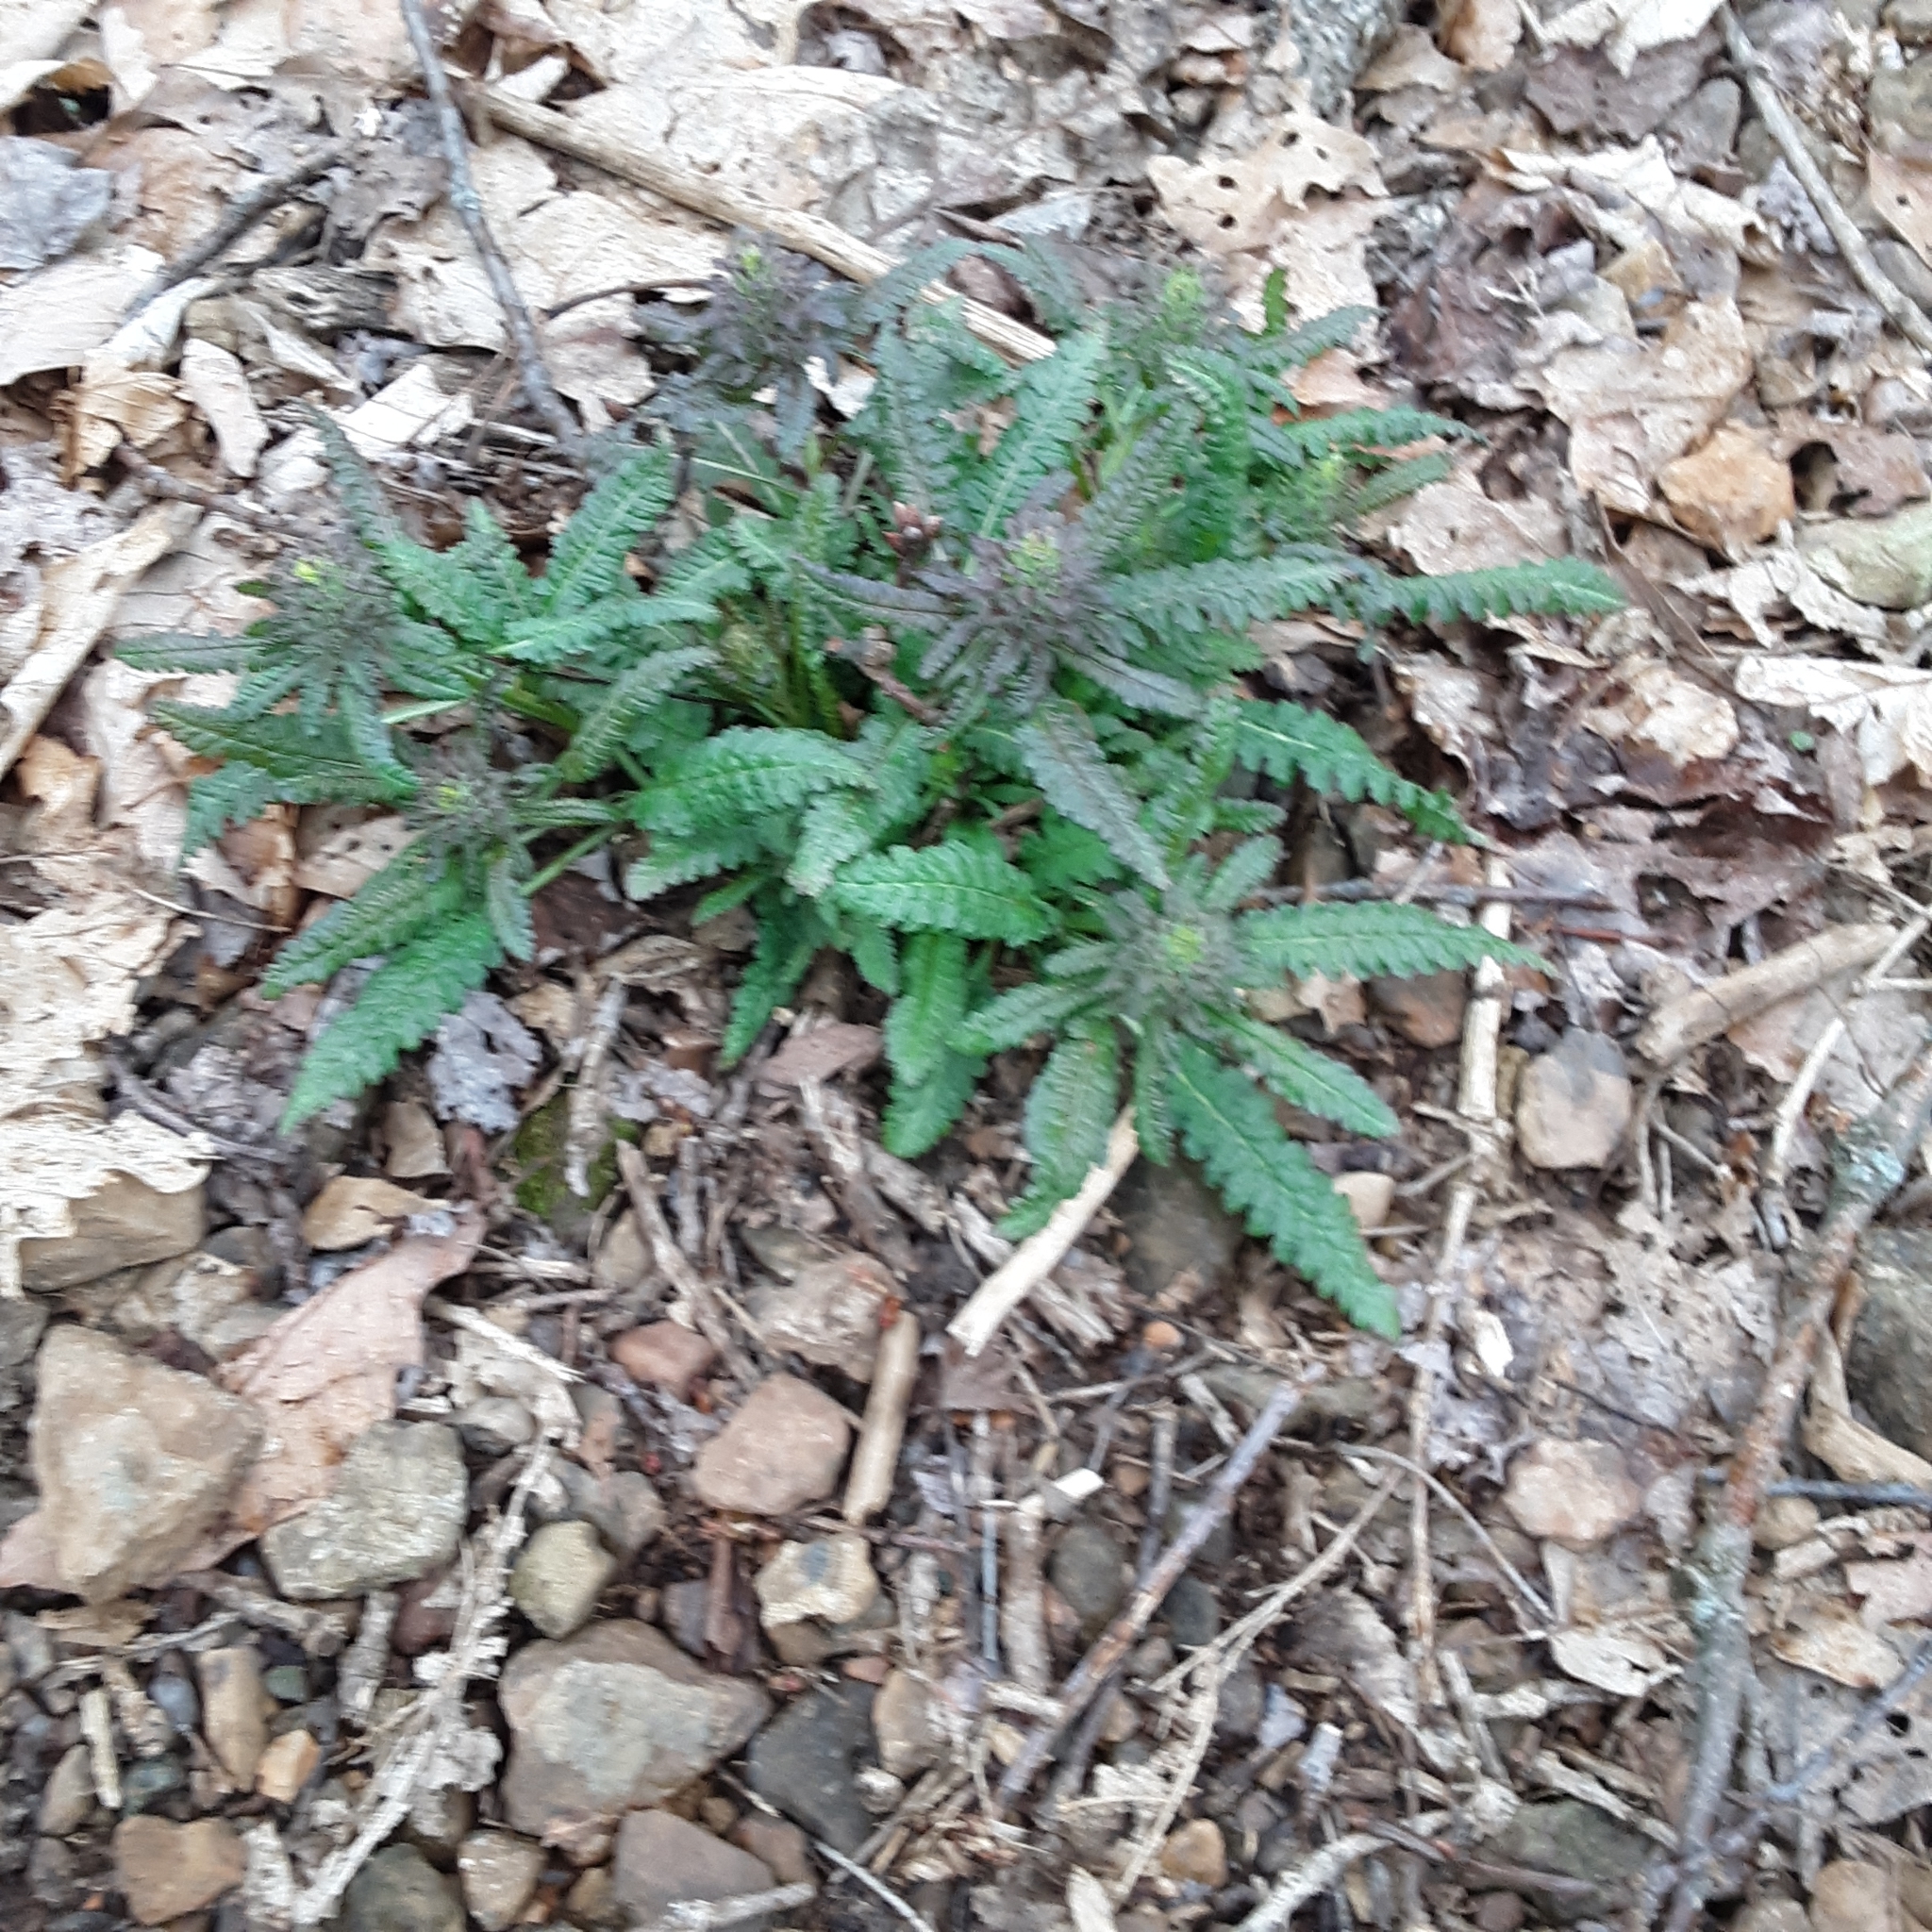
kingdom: Plantae
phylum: Tracheophyta
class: Magnoliopsida
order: Lamiales
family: Orobanchaceae
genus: Pedicularis
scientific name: Pedicularis canadensis
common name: Early lousewort
